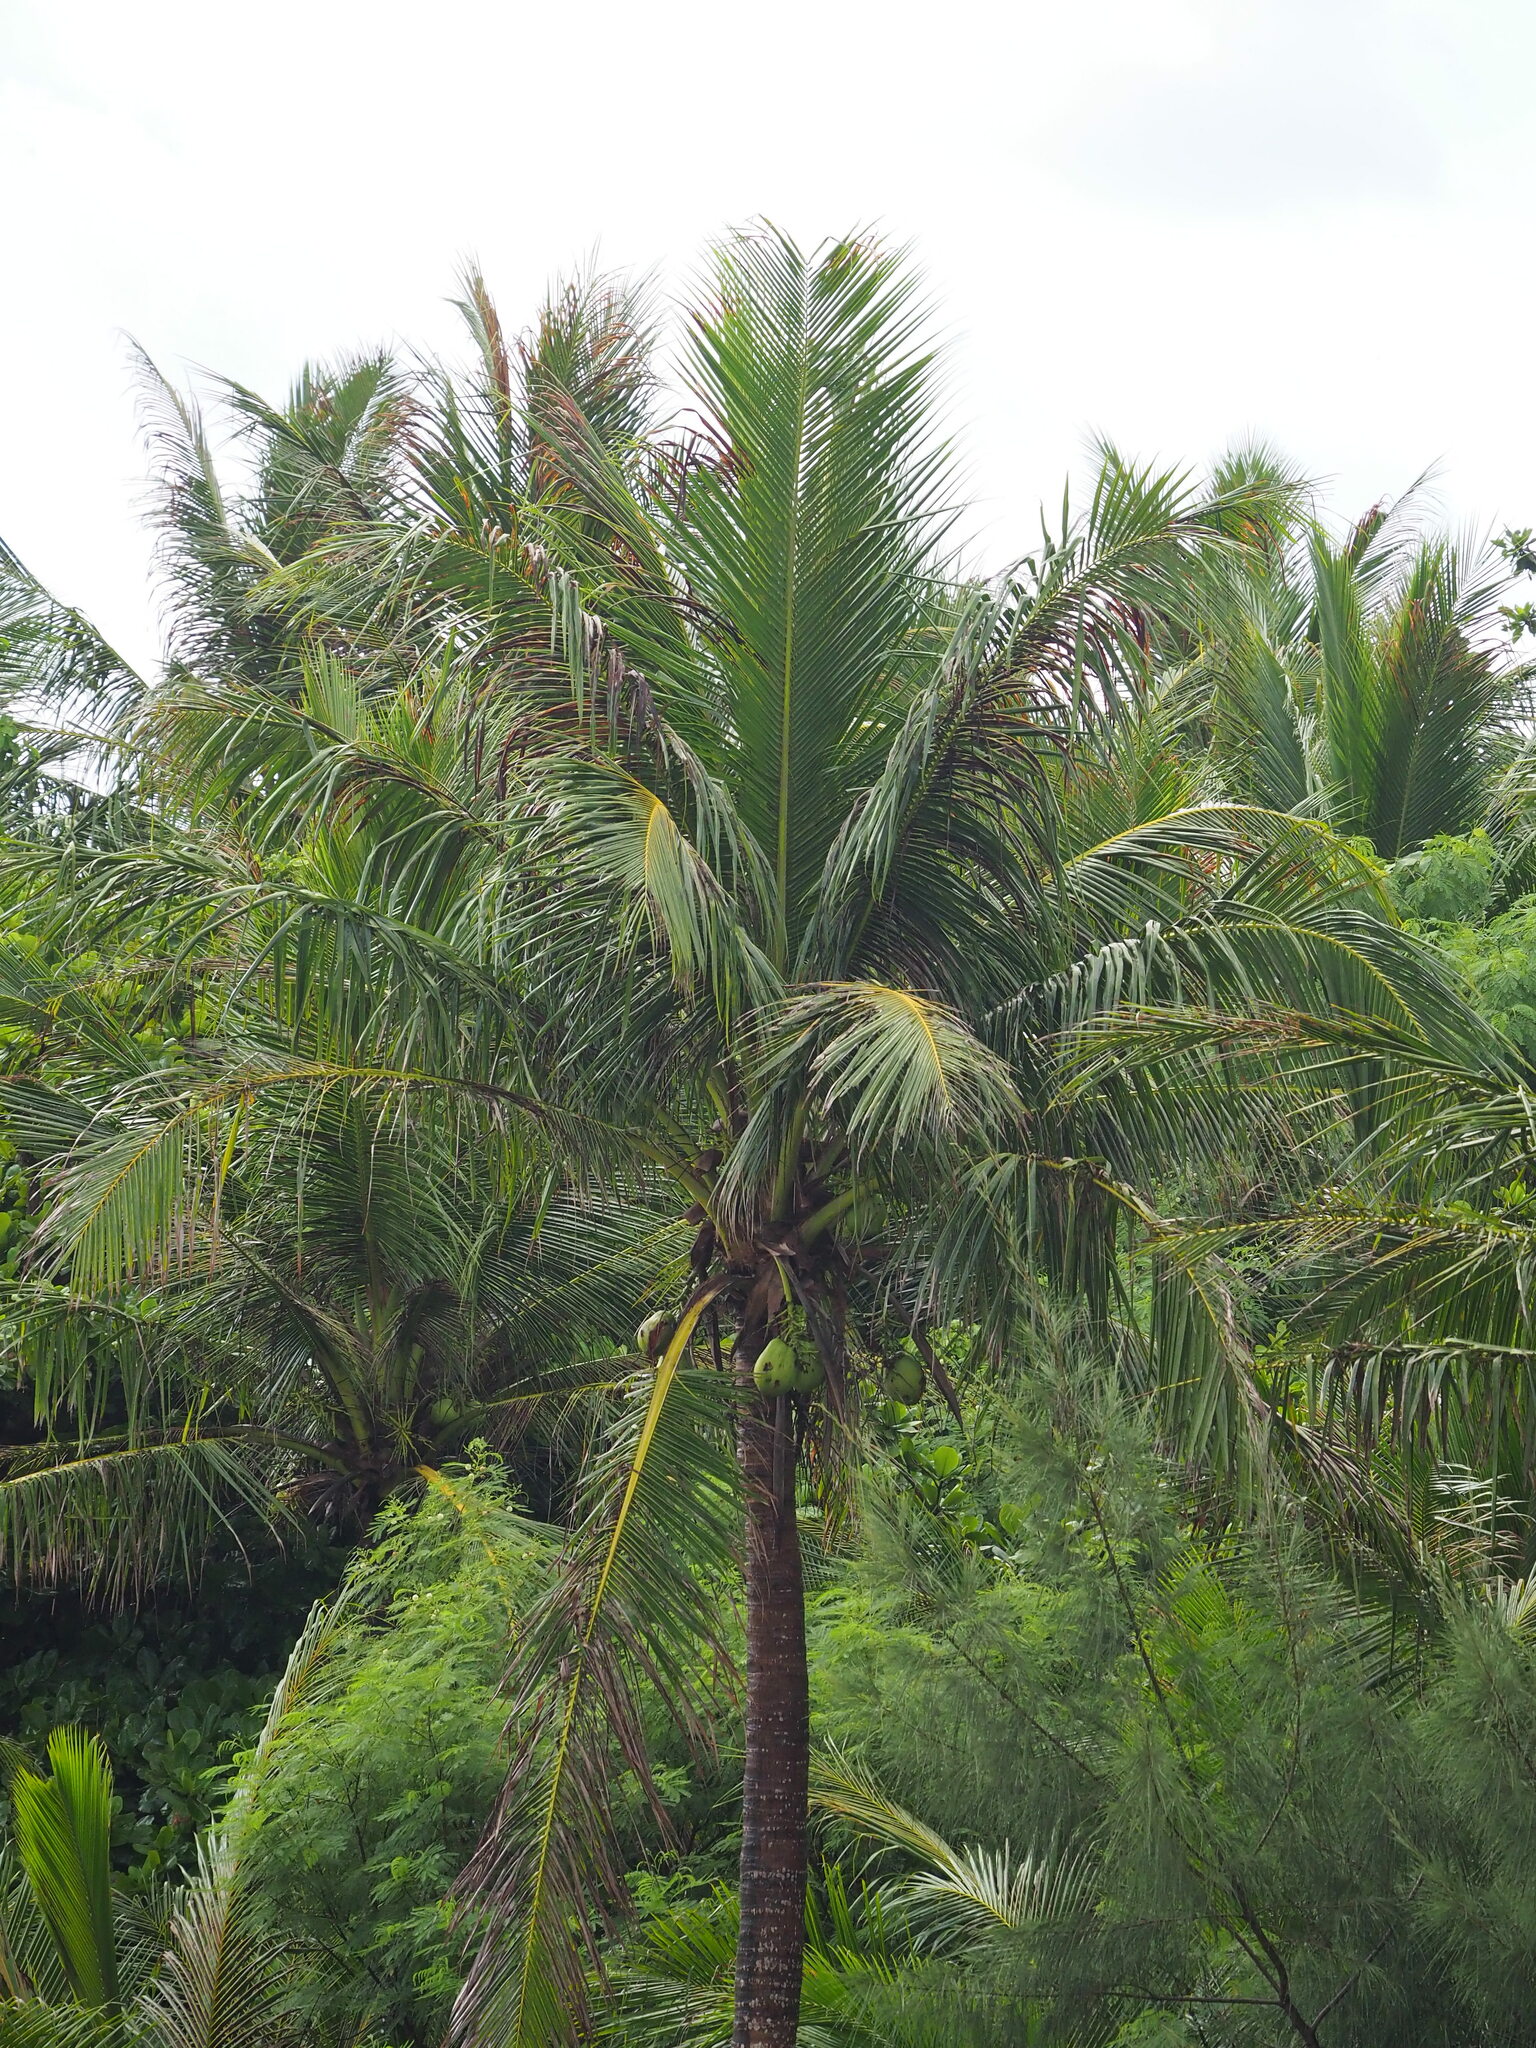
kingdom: Plantae
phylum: Tracheophyta
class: Liliopsida
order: Arecales
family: Arecaceae
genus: Cocos
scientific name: Cocos nucifera
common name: Coconut palm
